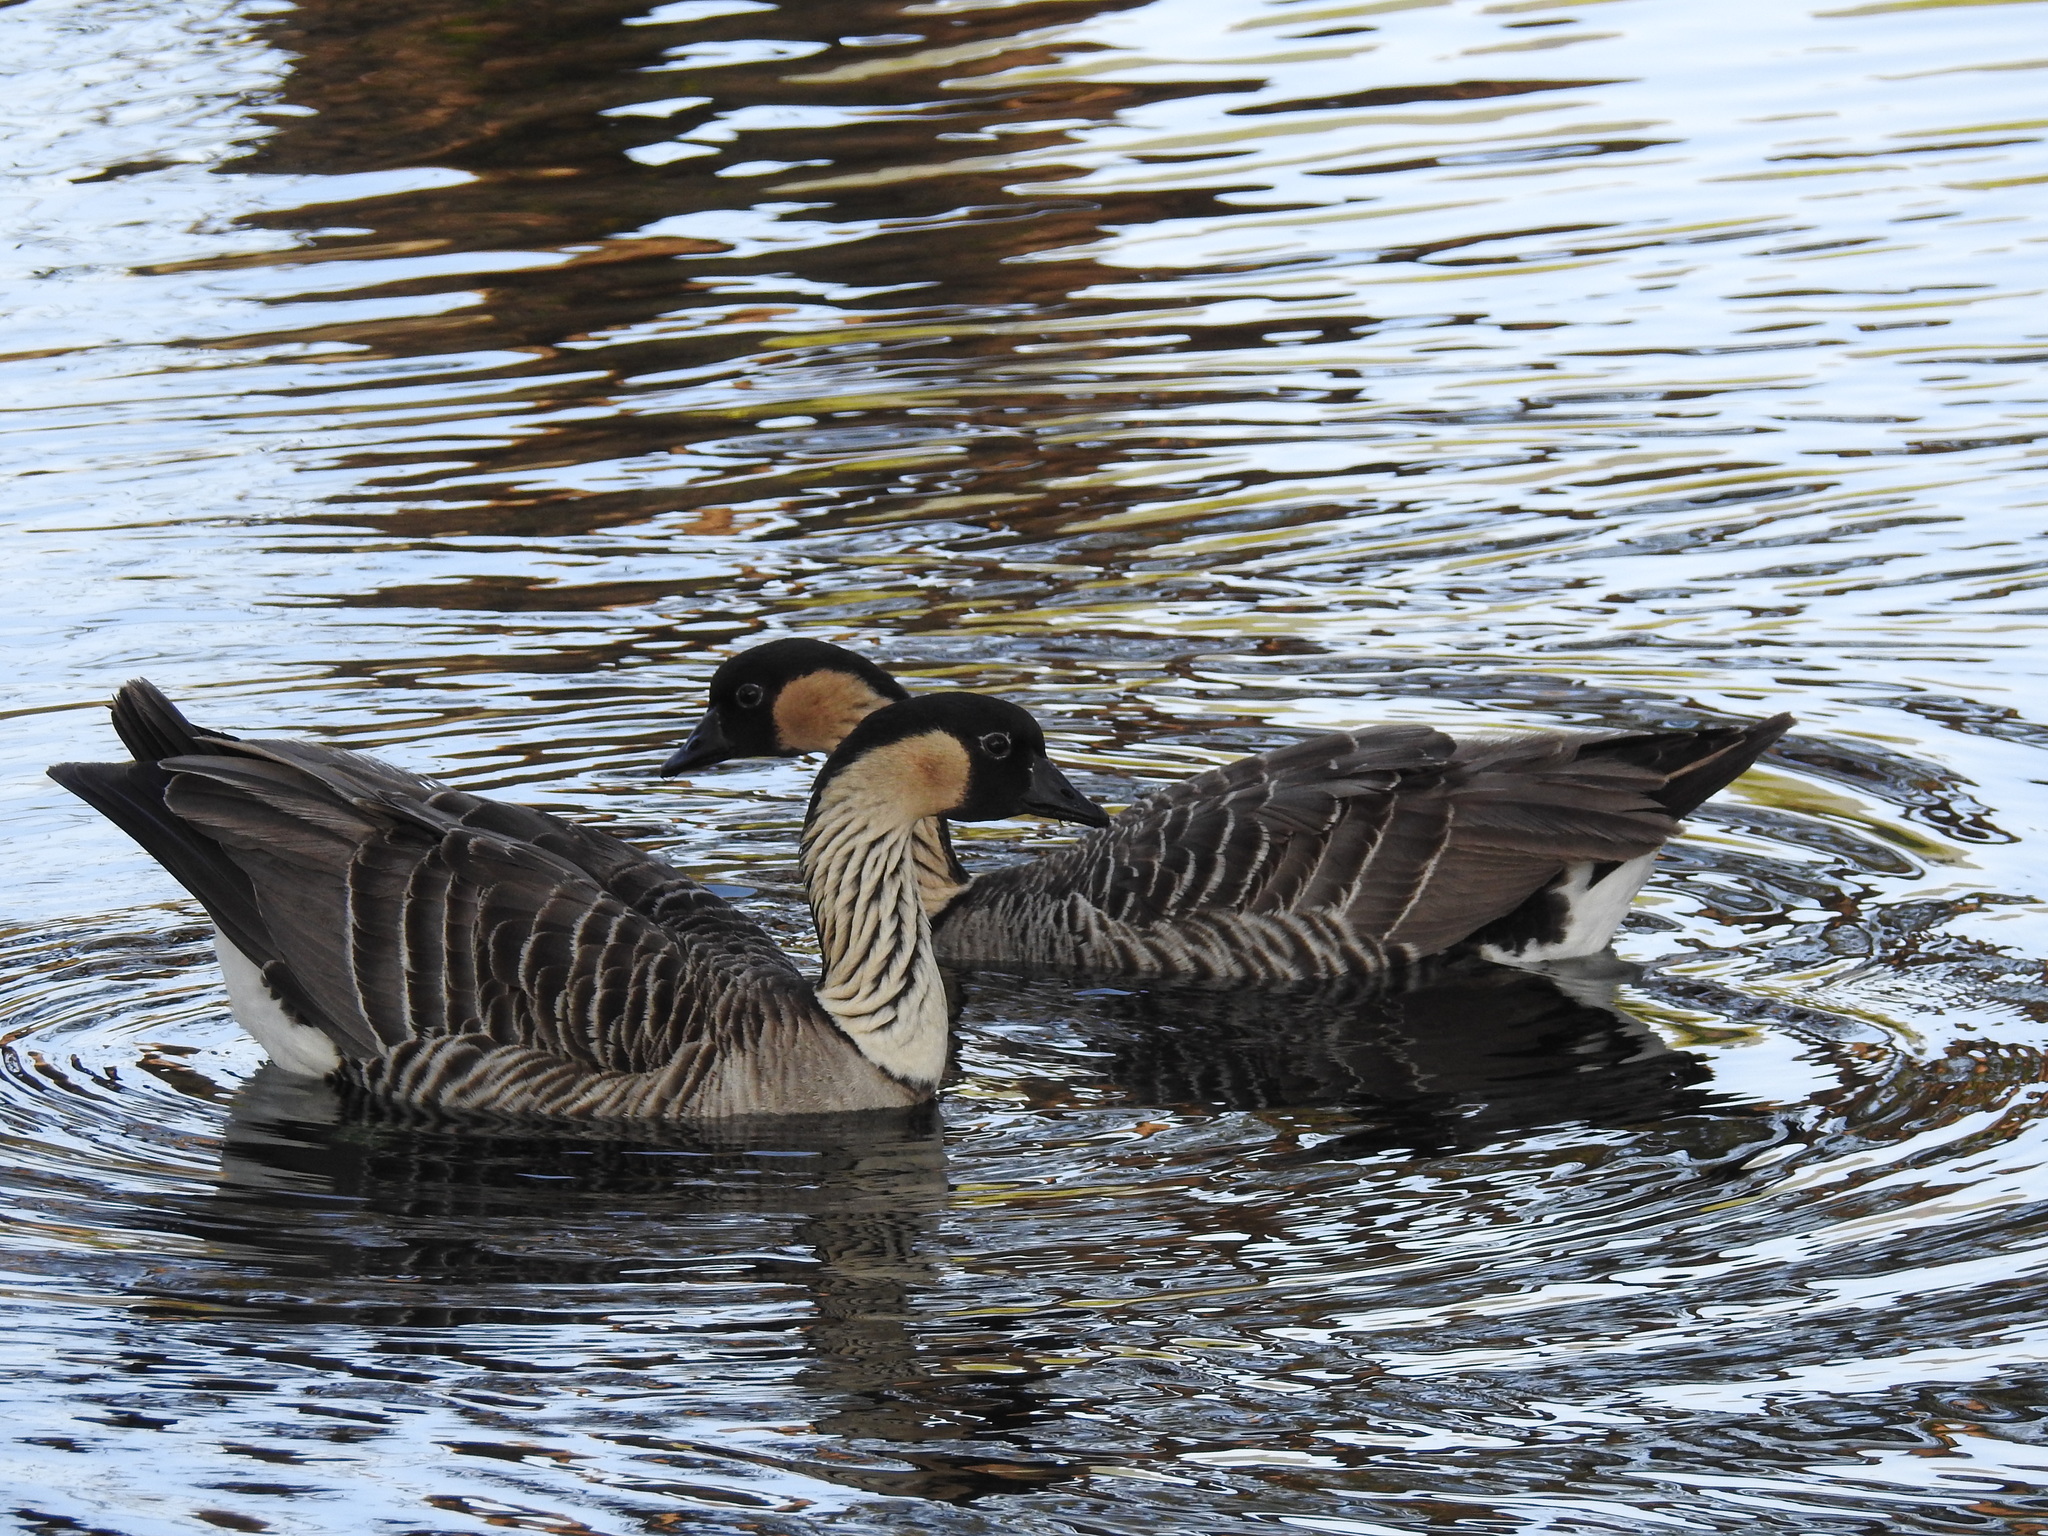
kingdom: Animalia
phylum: Chordata
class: Aves
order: Anseriformes
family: Anatidae
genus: Branta
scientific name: Branta sandvicensis
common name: Nene
